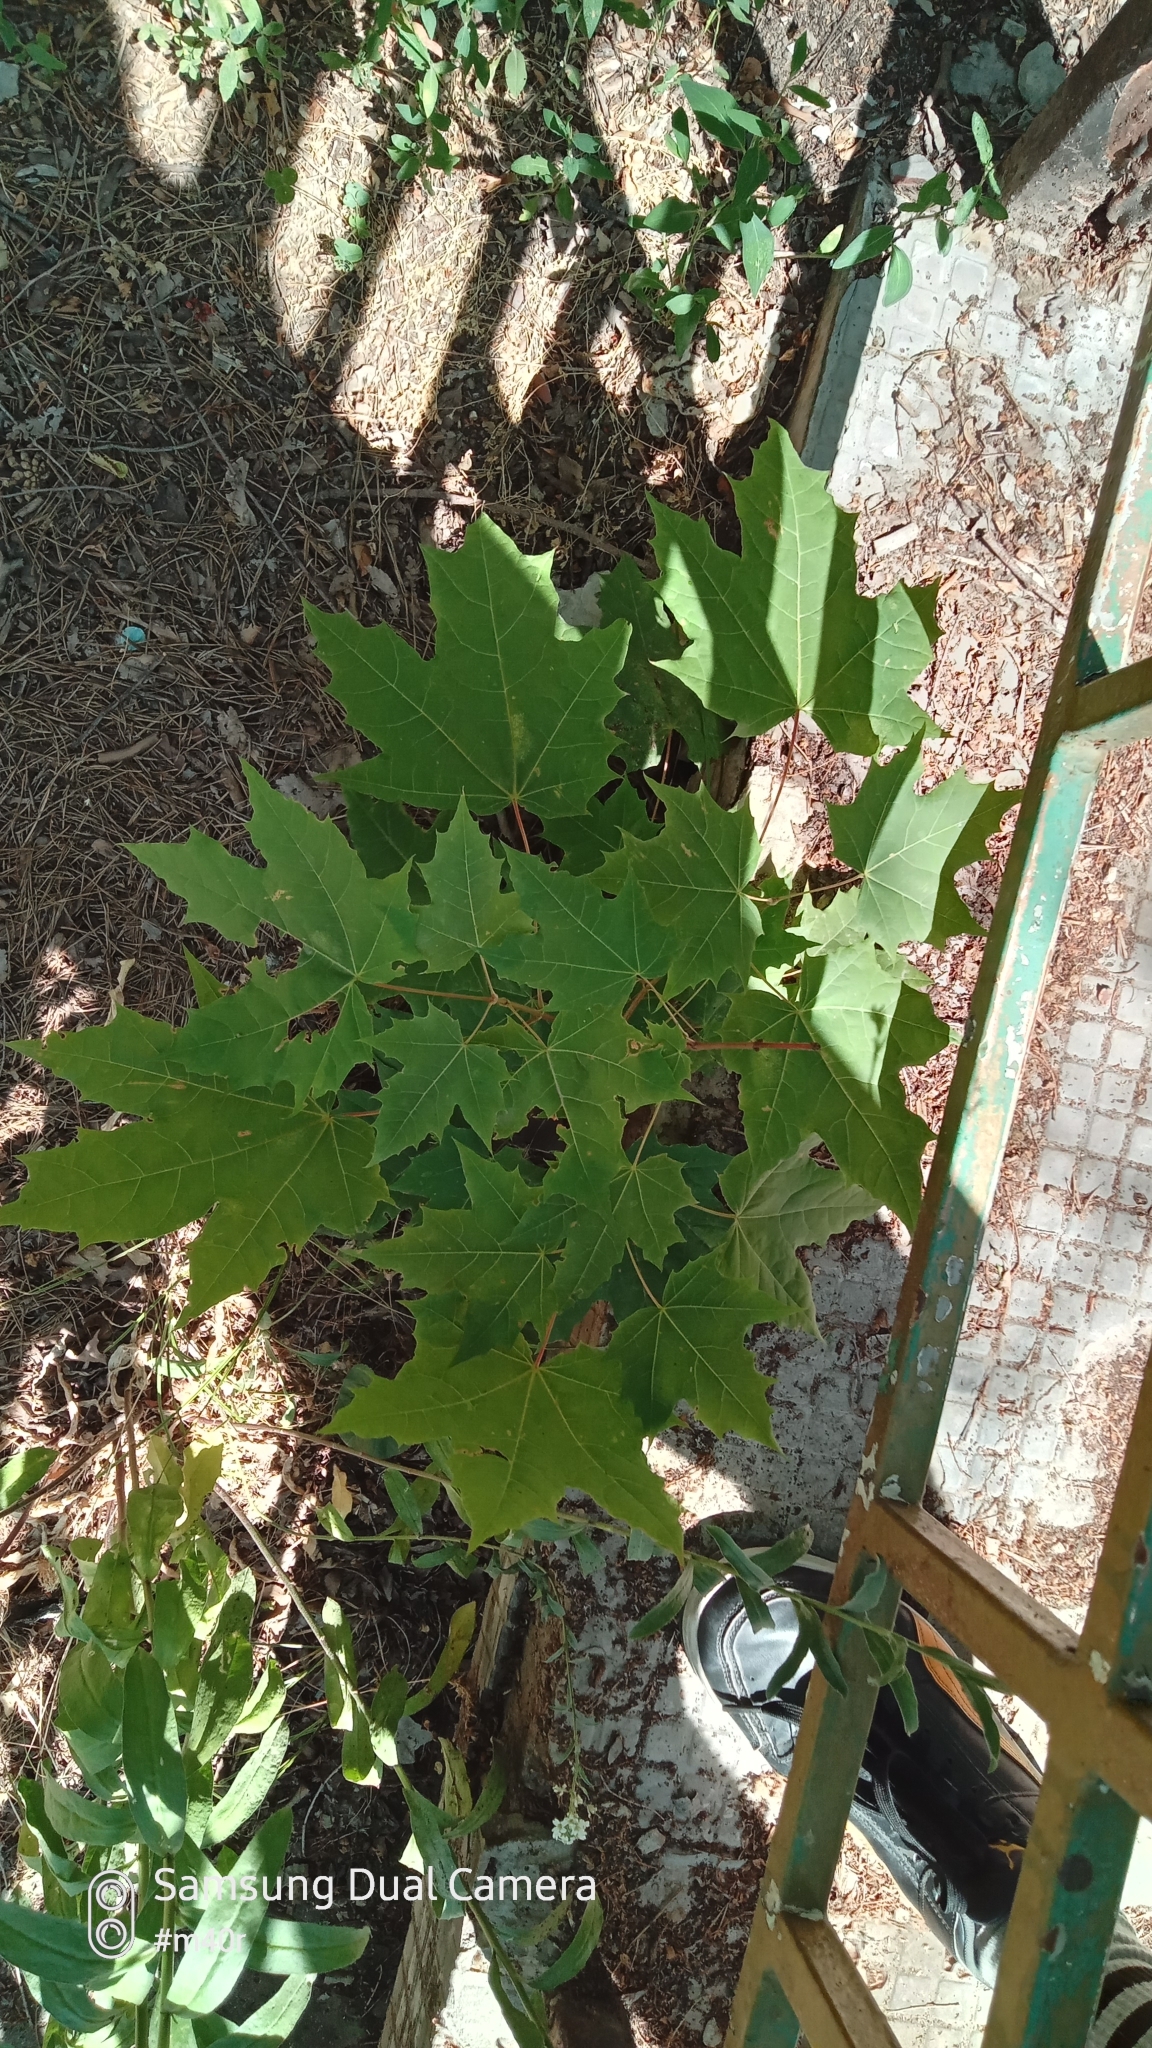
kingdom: Plantae
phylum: Tracheophyta
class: Magnoliopsida
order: Sapindales
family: Sapindaceae
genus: Acer
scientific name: Acer platanoides
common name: Norway maple
